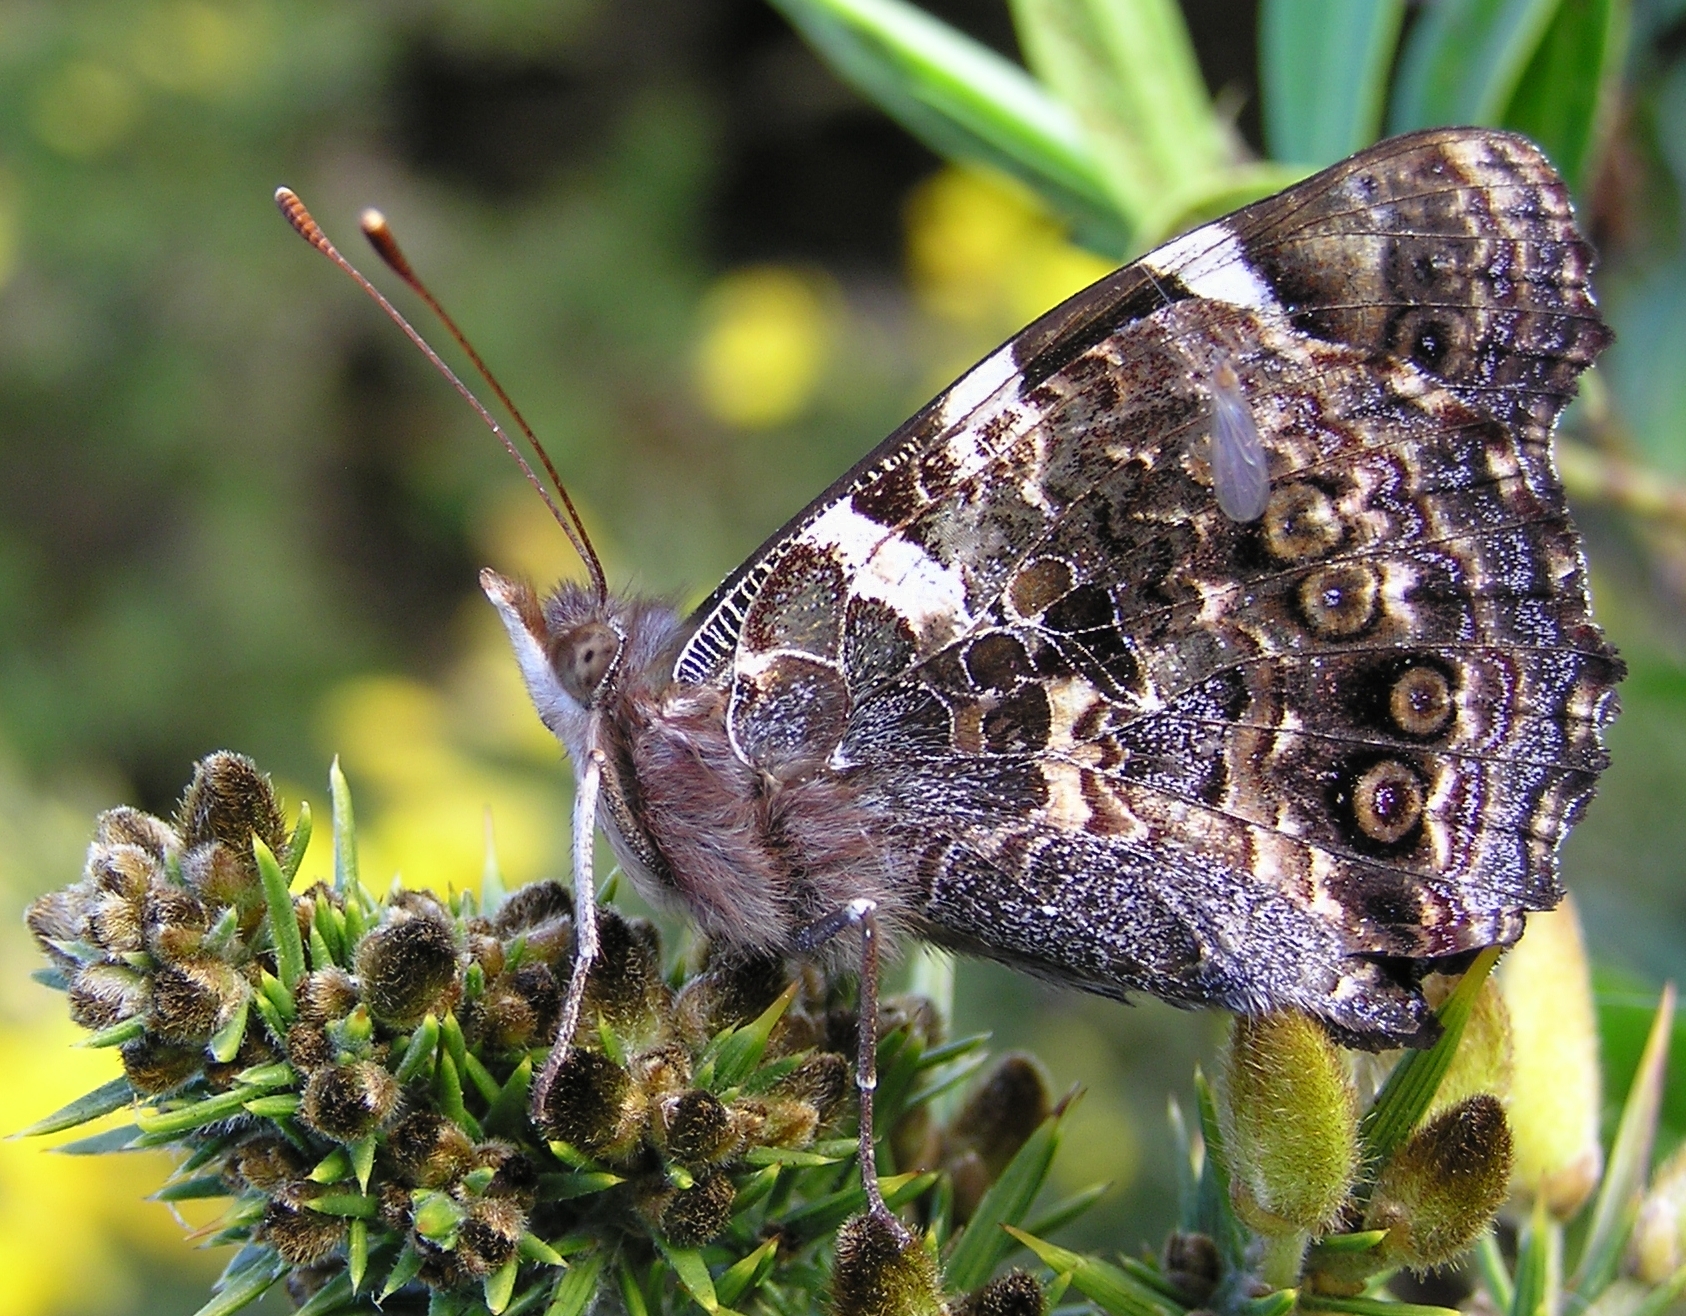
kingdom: Animalia
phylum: Arthropoda
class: Insecta
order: Lepidoptera
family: Nymphalidae
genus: Vanessa
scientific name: Vanessa gonerilla
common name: New zealand red admiral
